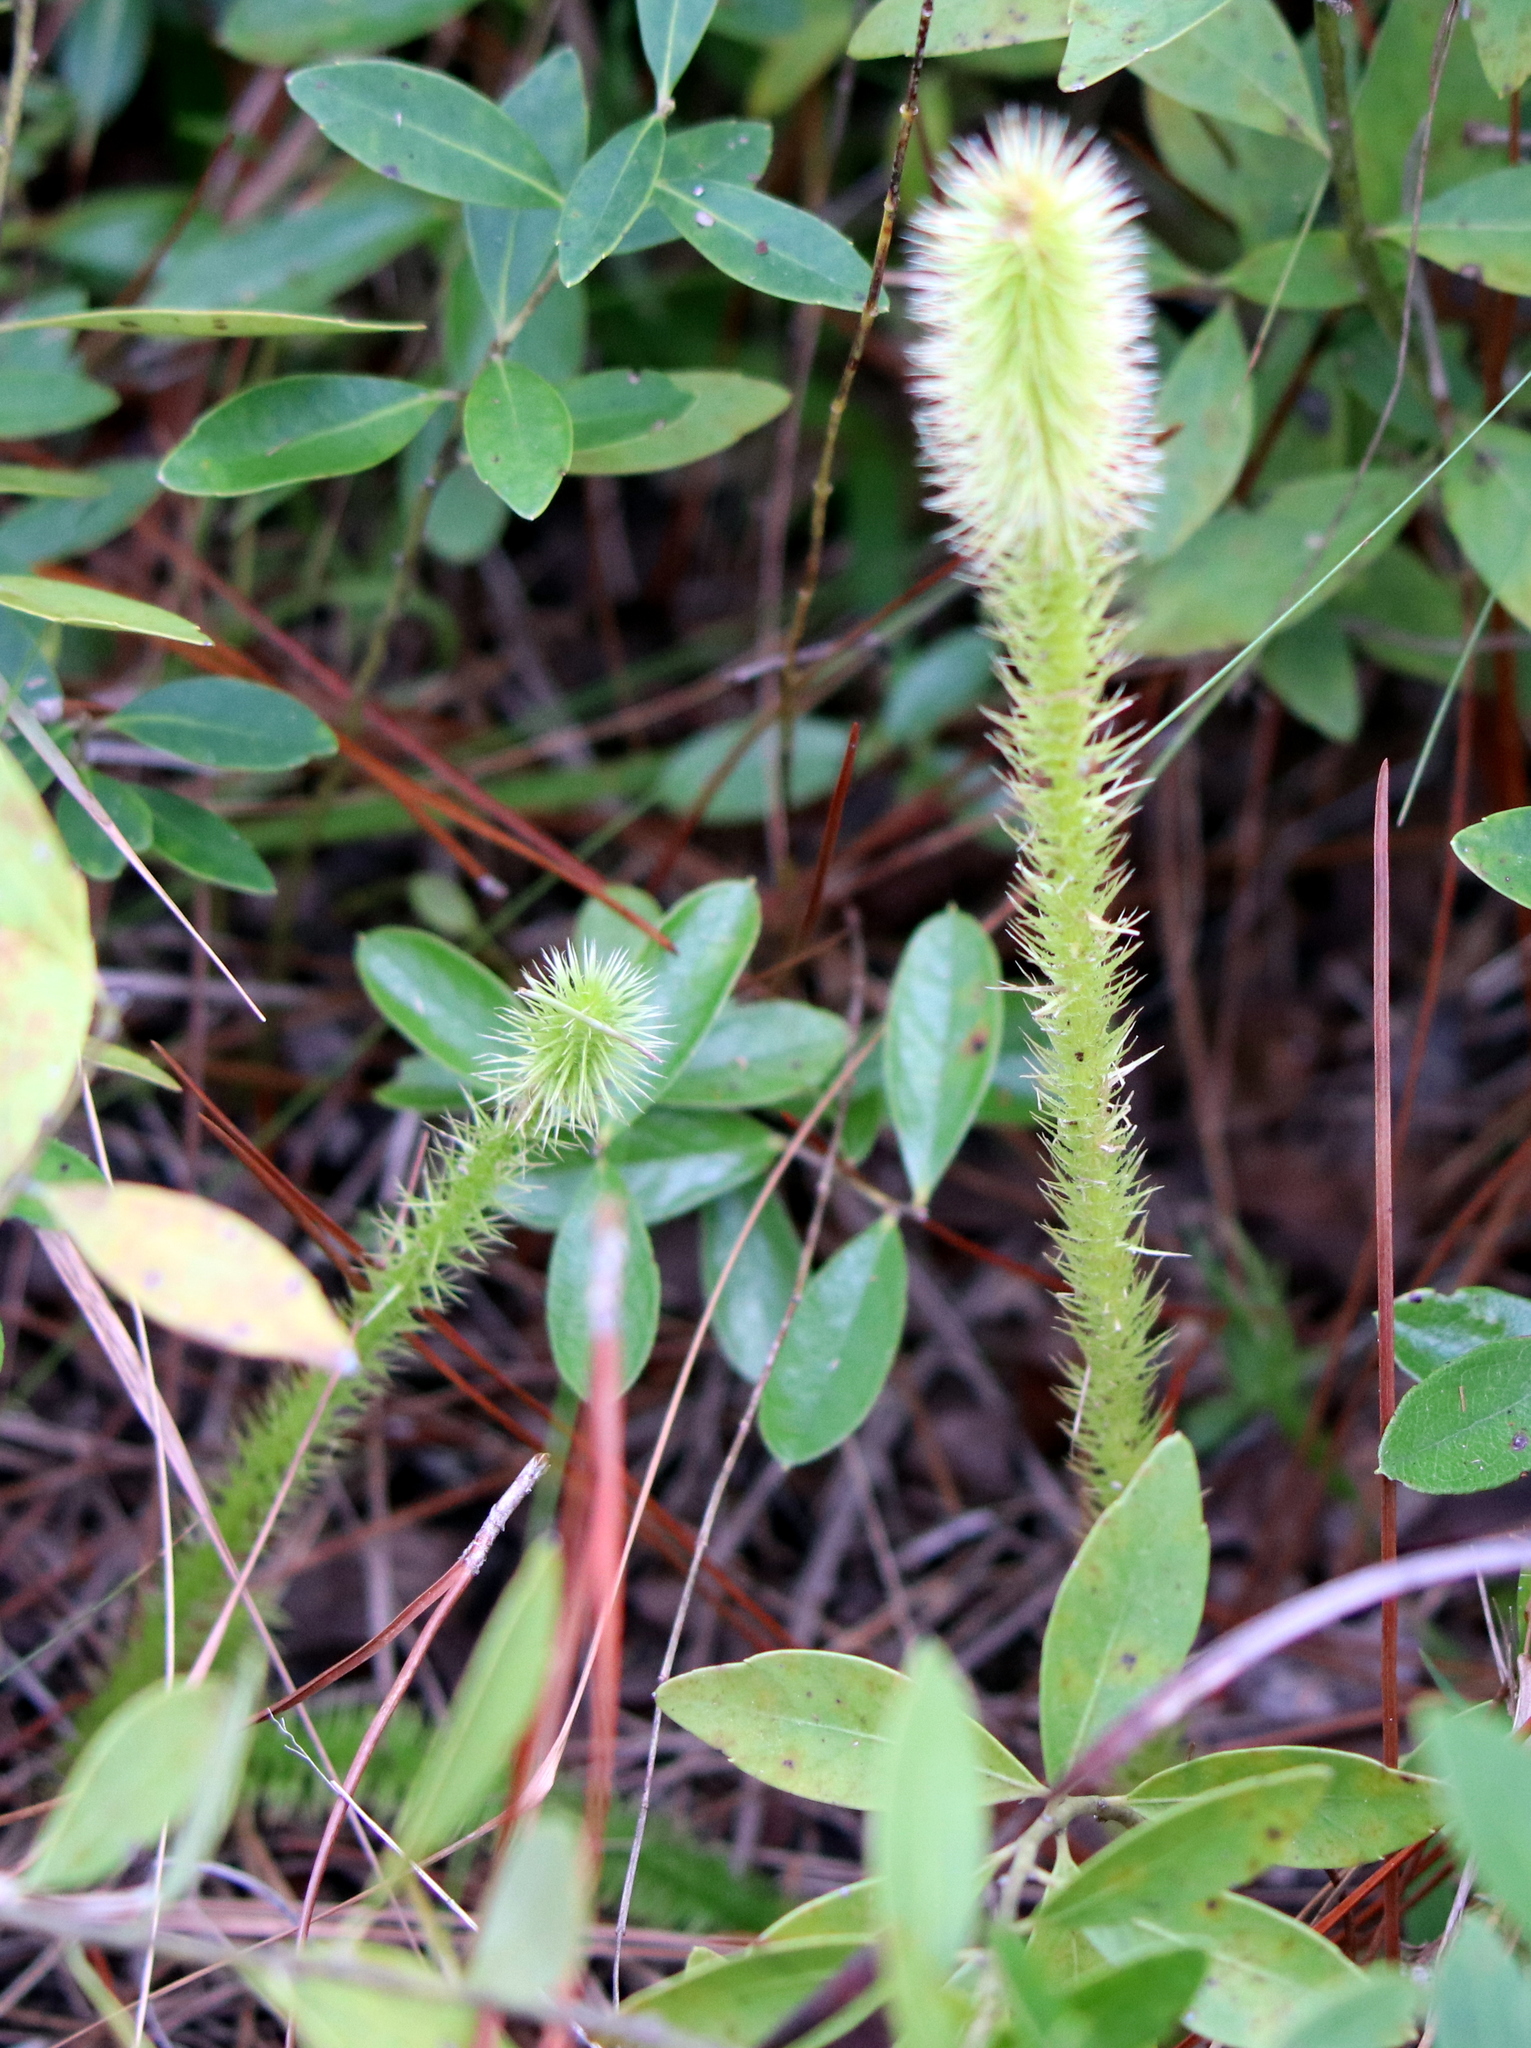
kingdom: Plantae
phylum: Tracheophyta
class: Lycopodiopsida
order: Lycopodiales
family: Lycopodiaceae
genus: Lycopodiella
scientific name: Lycopodiella alopecuroides
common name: Foxtail clubmoss
